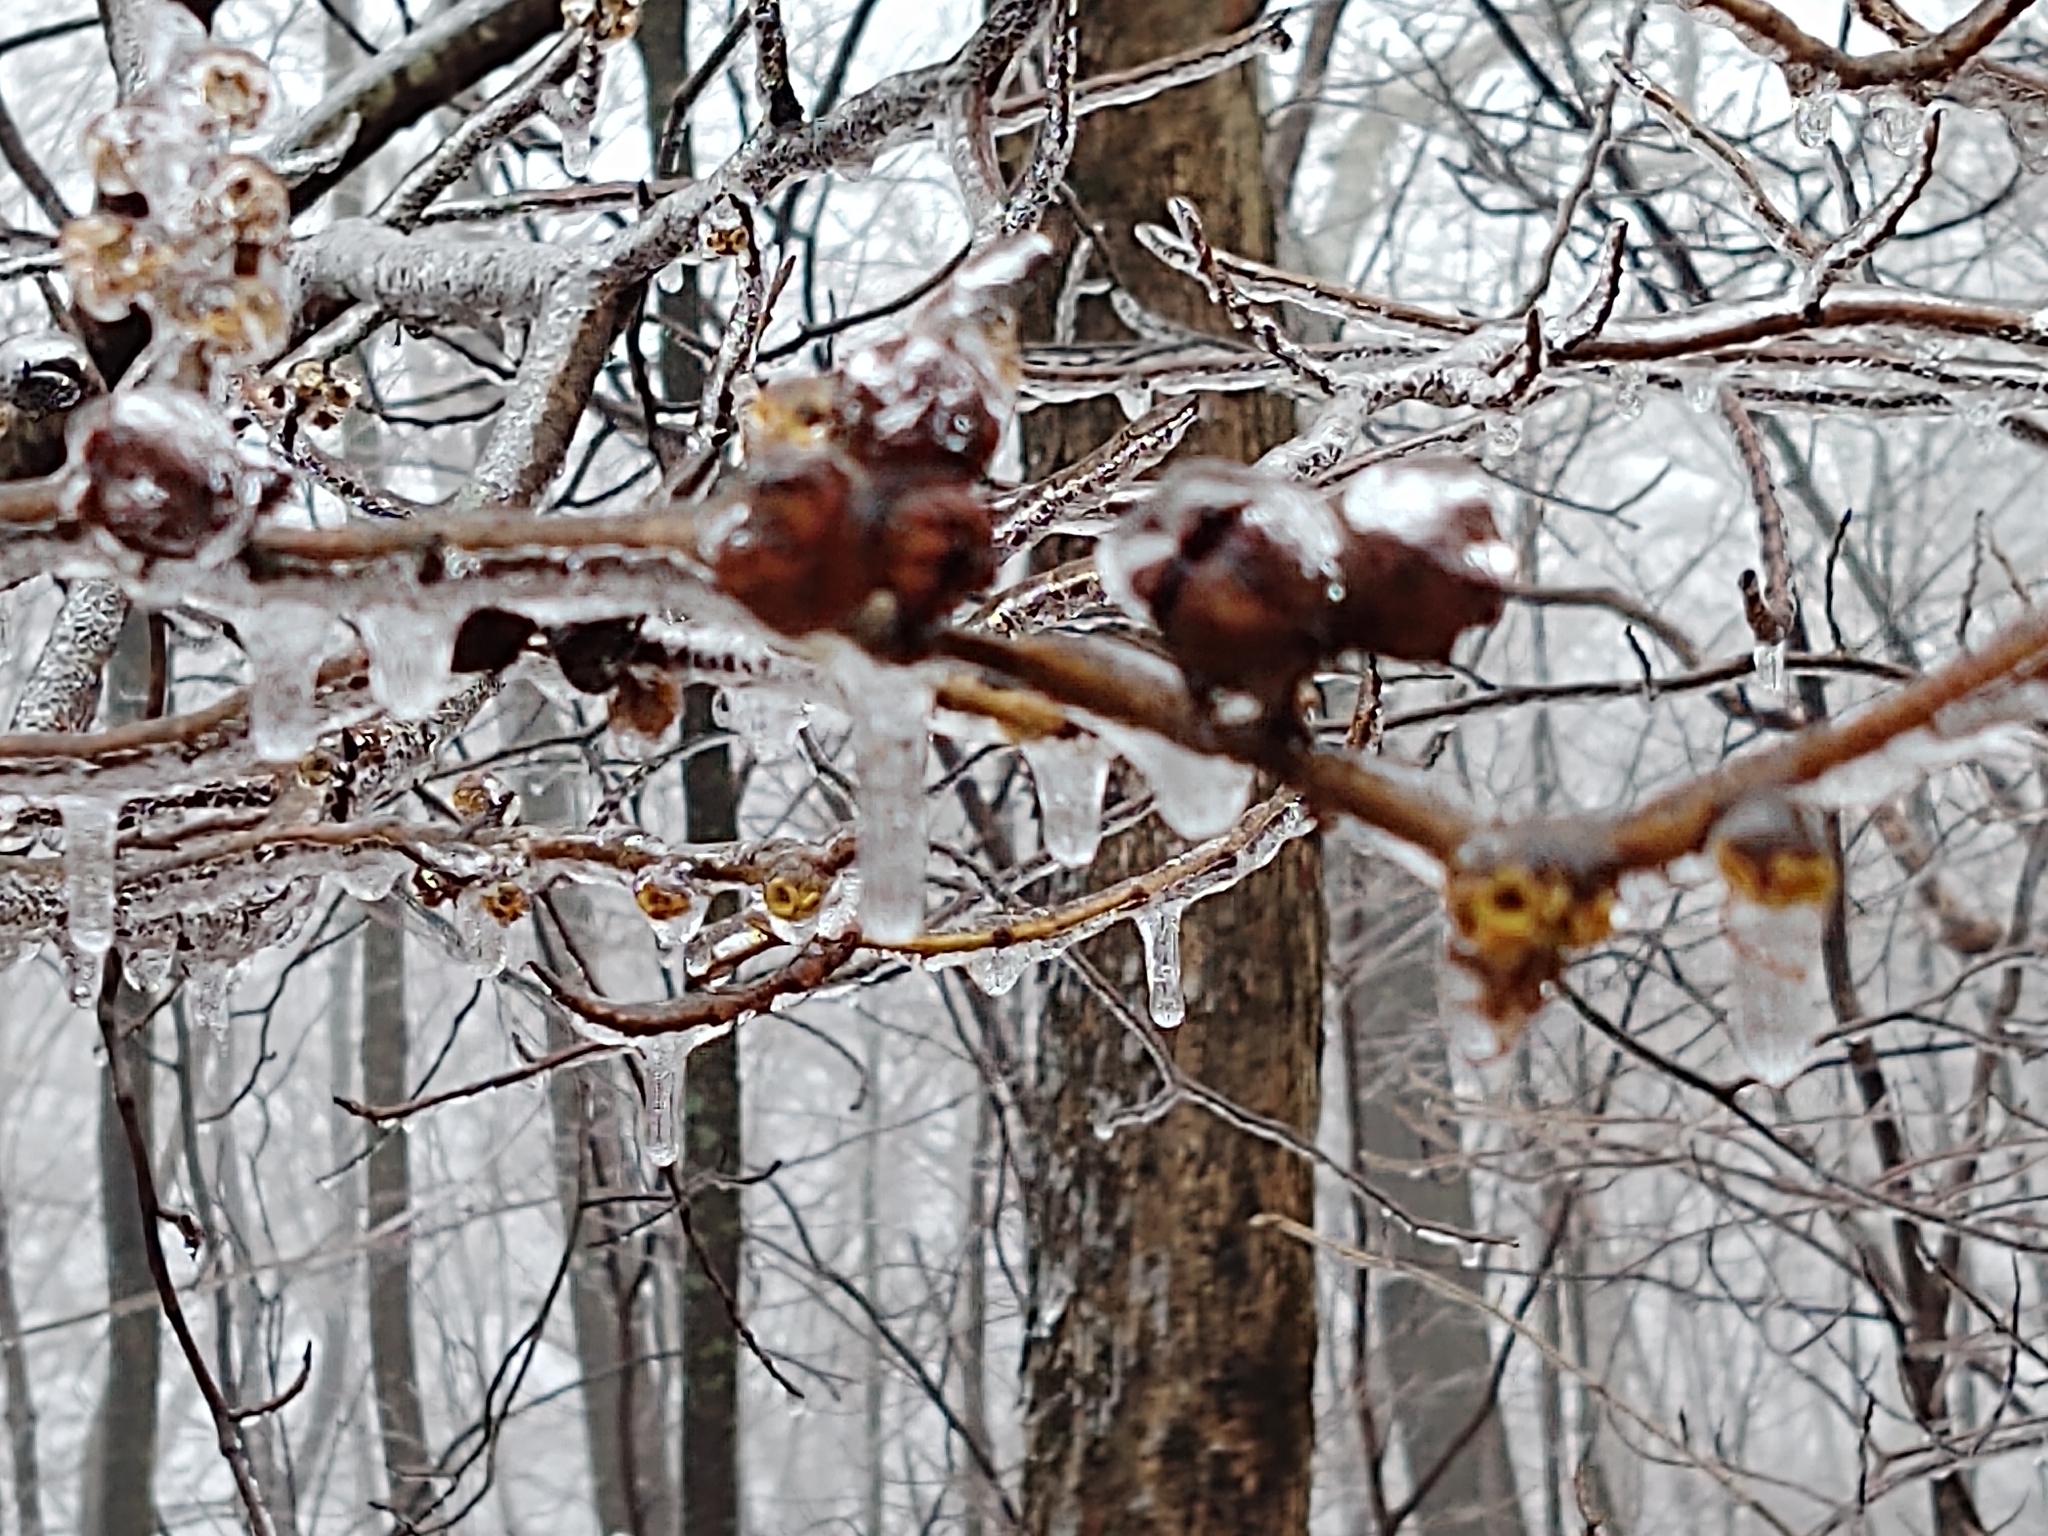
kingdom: Plantae
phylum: Tracheophyta
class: Magnoliopsida
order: Saxifragales
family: Hamamelidaceae
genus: Hamamelis
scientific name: Hamamelis virginiana
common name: Witch-hazel
